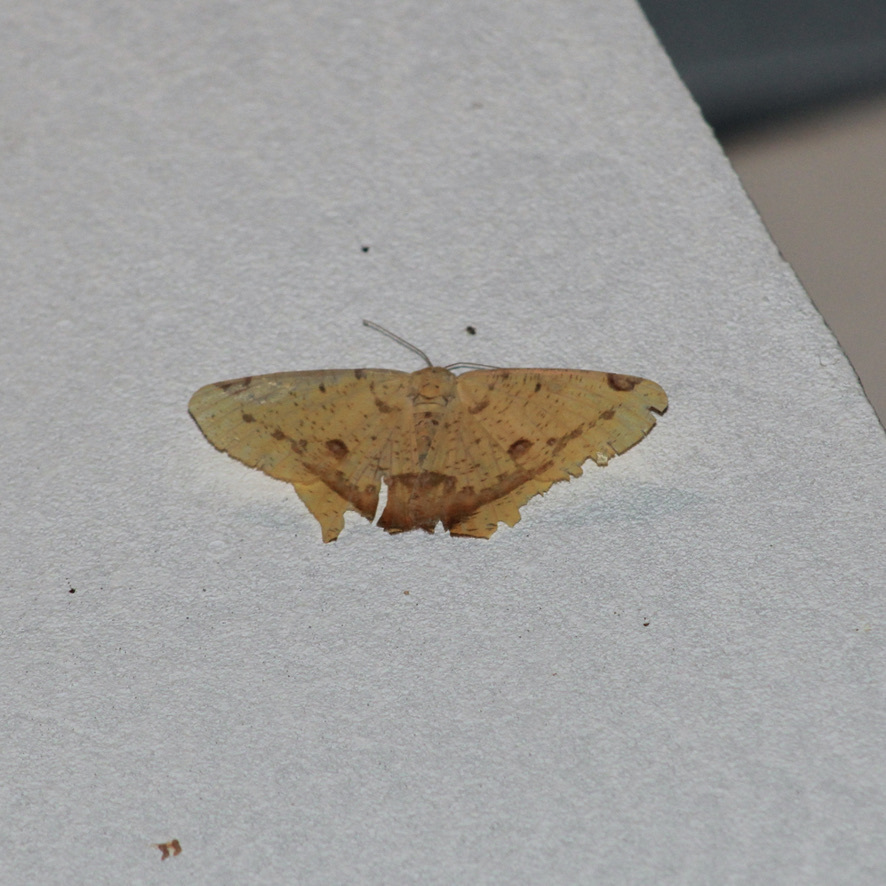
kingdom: Animalia
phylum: Arthropoda
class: Insecta
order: Lepidoptera
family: Geometridae
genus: Nepheloleuca
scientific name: Nepheloleuca politia
